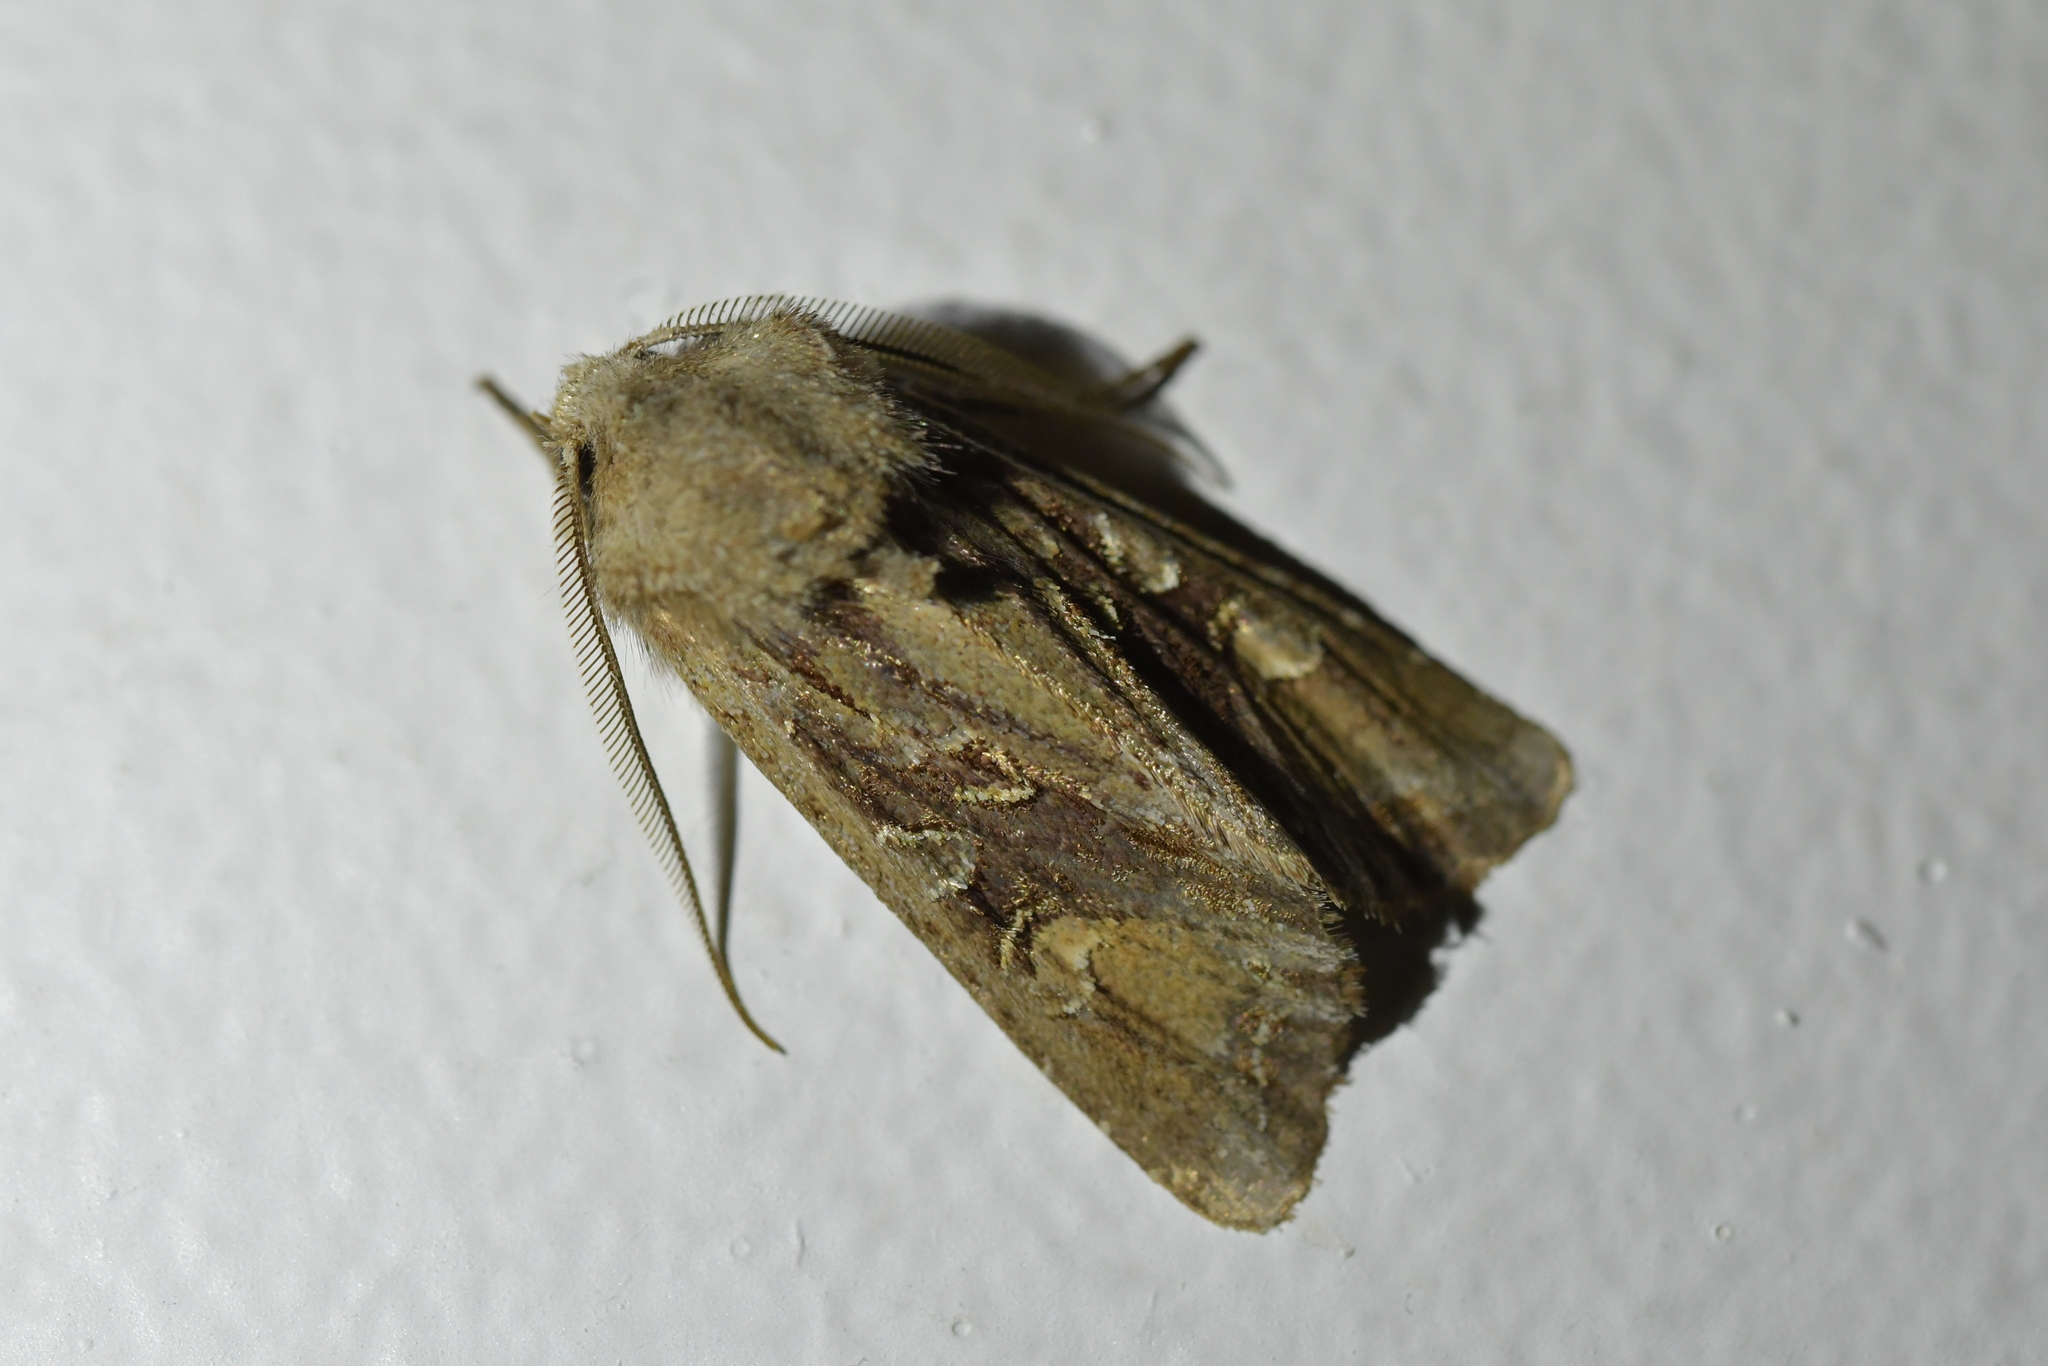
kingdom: Animalia
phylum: Arthropoda
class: Insecta
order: Lepidoptera
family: Noctuidae
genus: Ichneutica
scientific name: Ichneutica
